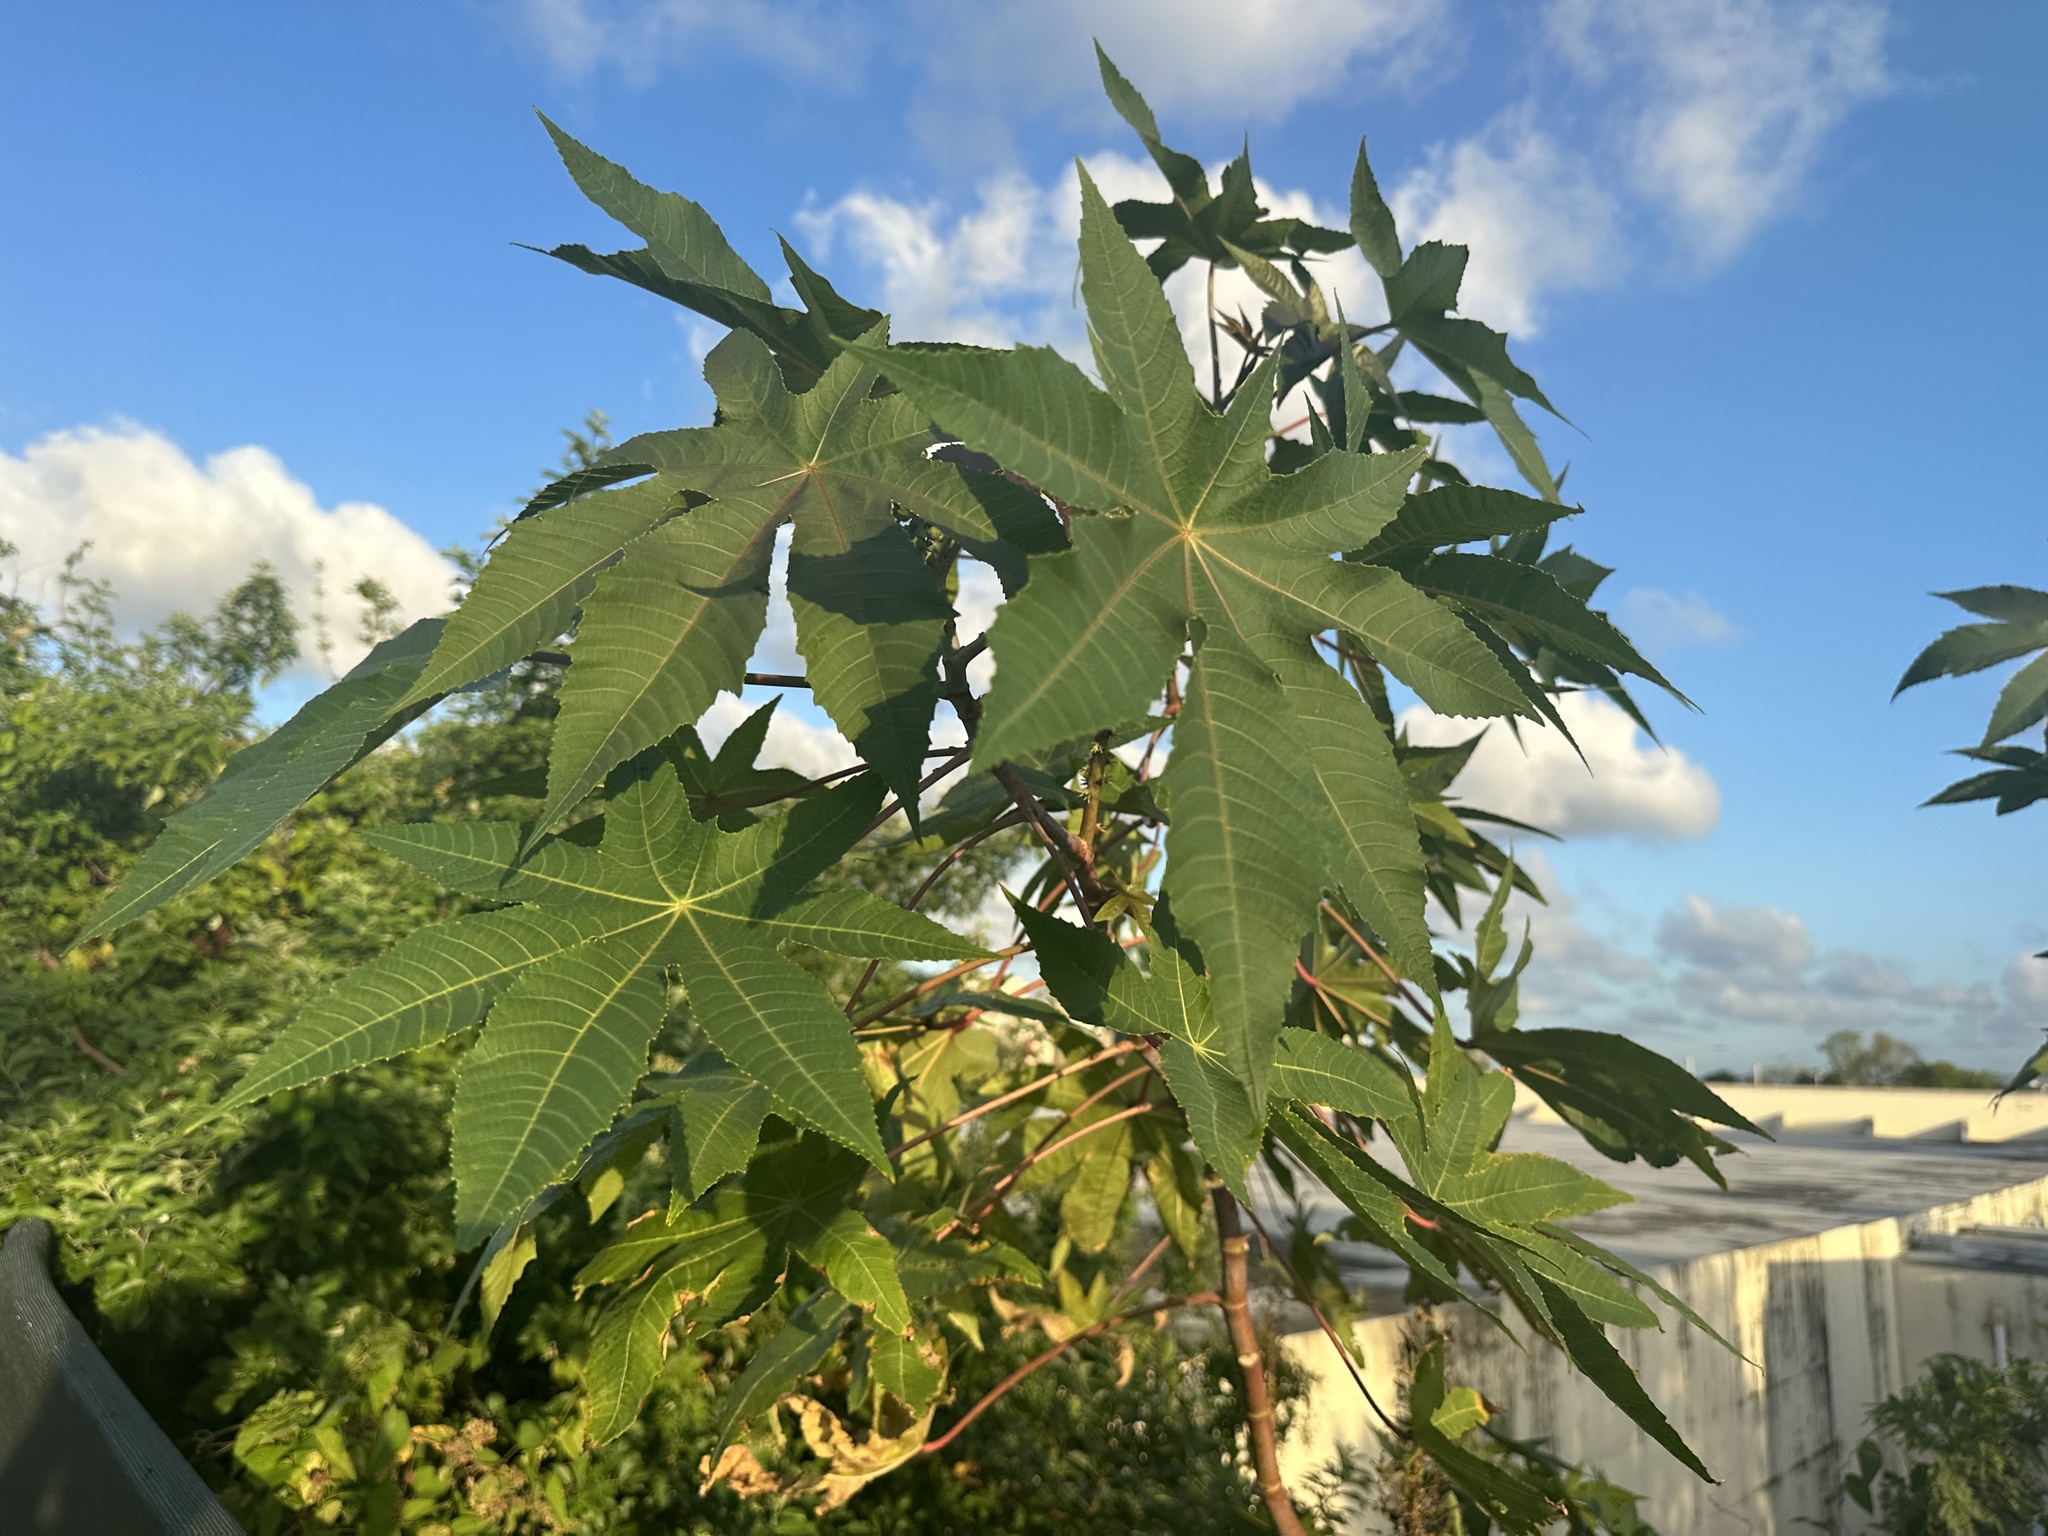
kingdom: Plantae
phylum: Tracheophyta
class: Magnoliopsida
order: Malpighiales
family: Euphorbiaceae
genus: Ricinus
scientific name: Ricinus communis
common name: Castor-oil-plant
